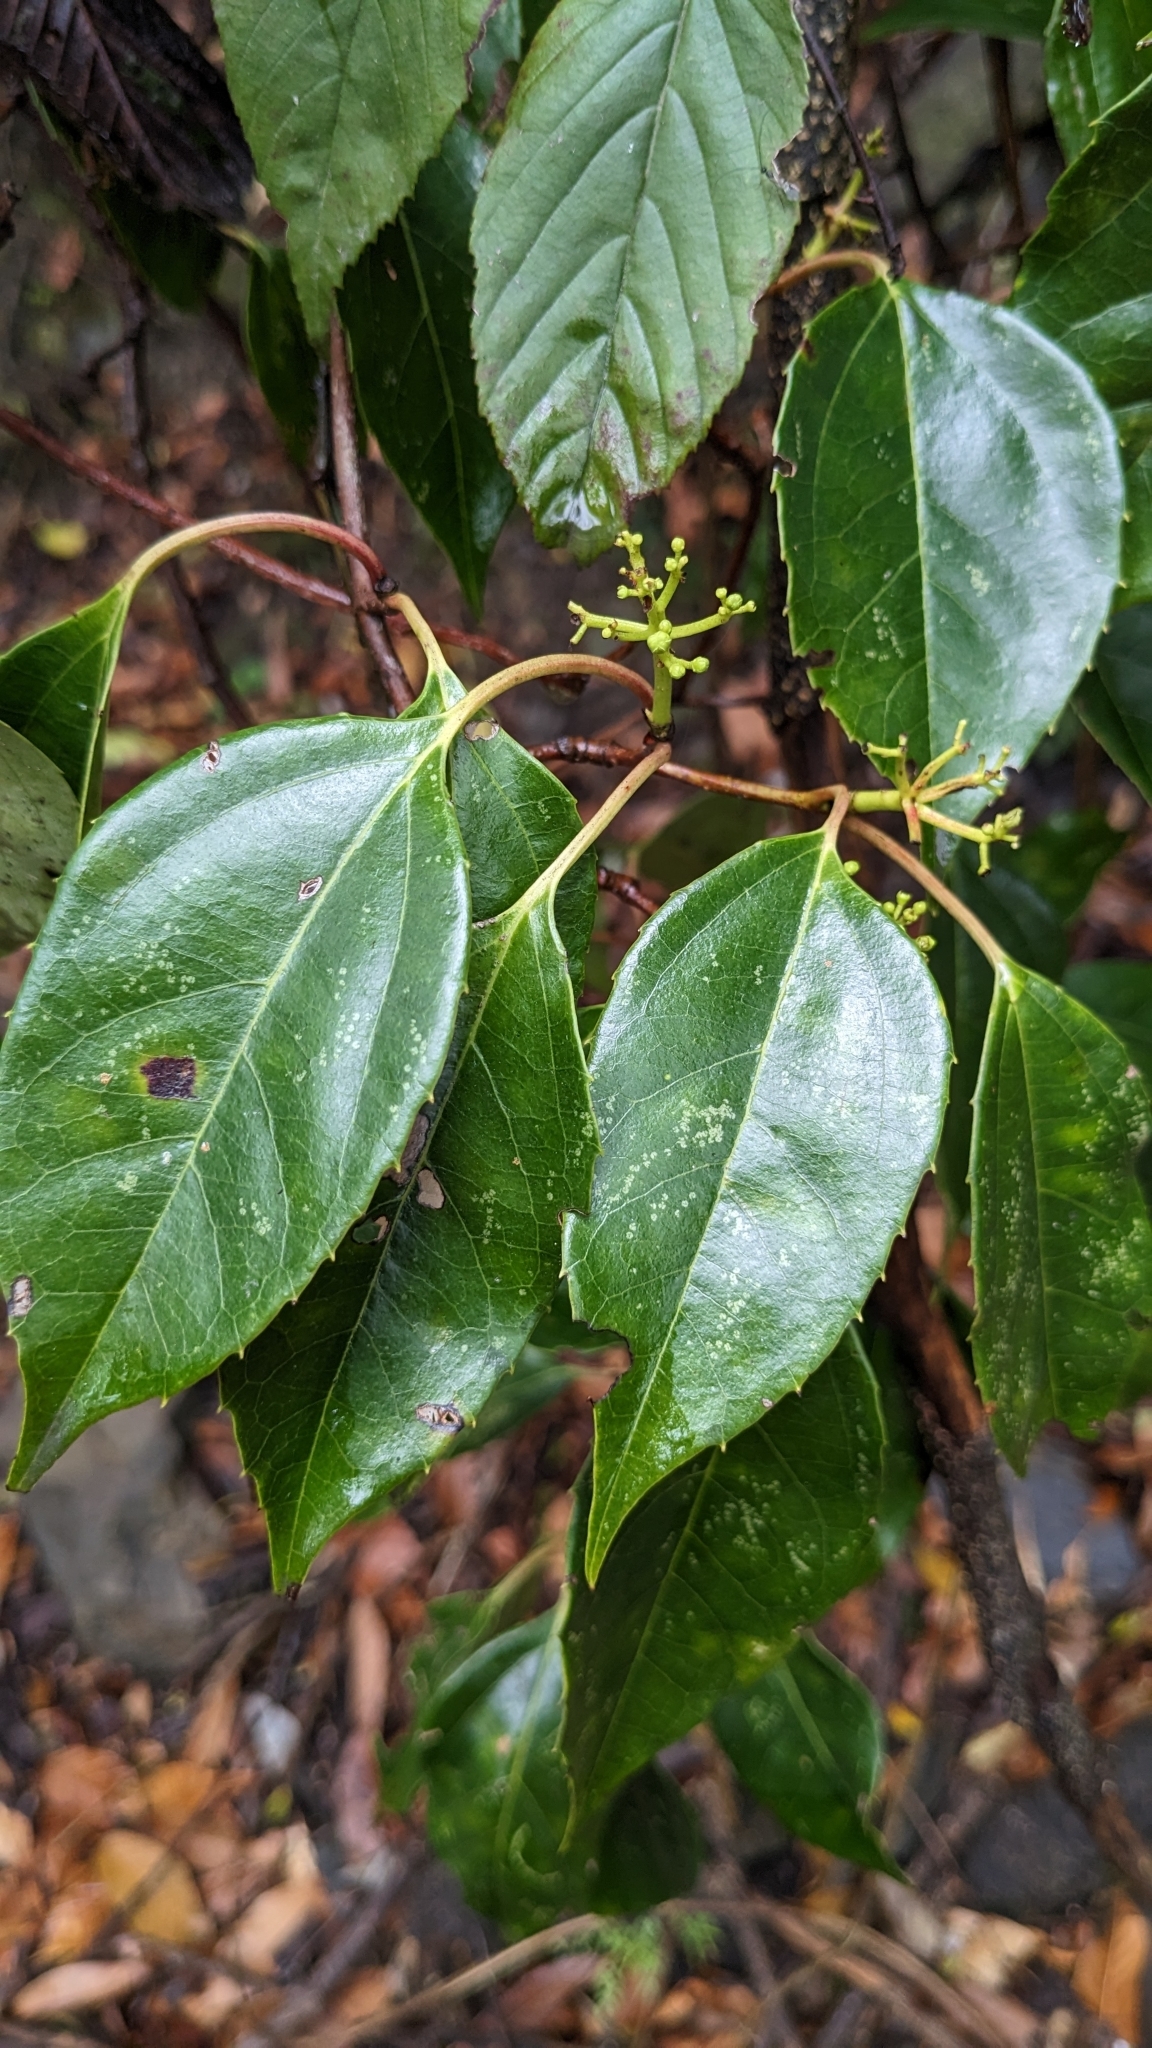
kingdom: Plantae
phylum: Tracheophyta
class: Magnoliopsida
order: Dipsacales
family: Viburnaceae
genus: Viburnum
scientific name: Viburnum propinquum
